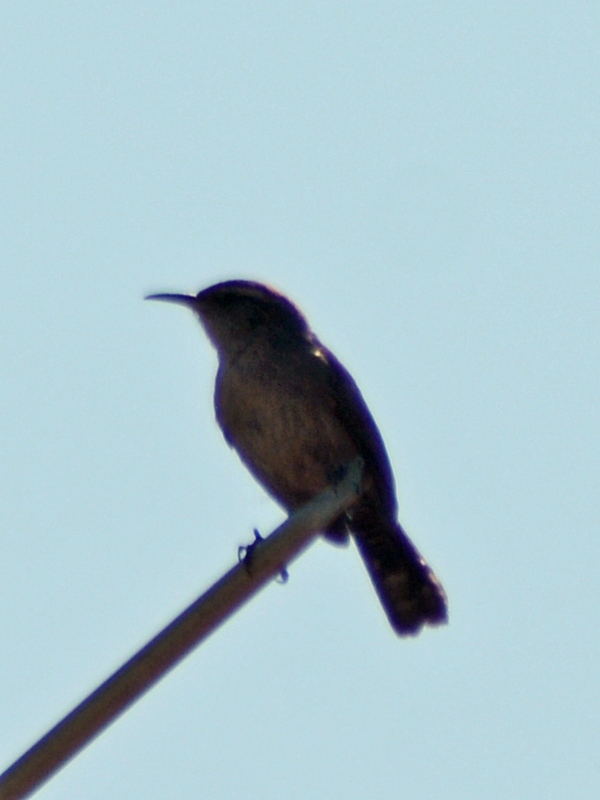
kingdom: Animalia
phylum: Chordata
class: Aves
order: Passeriformes
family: Troglodytidae
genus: Thryomanes
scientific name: Thryomanes bewickii
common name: Bewick's wren
